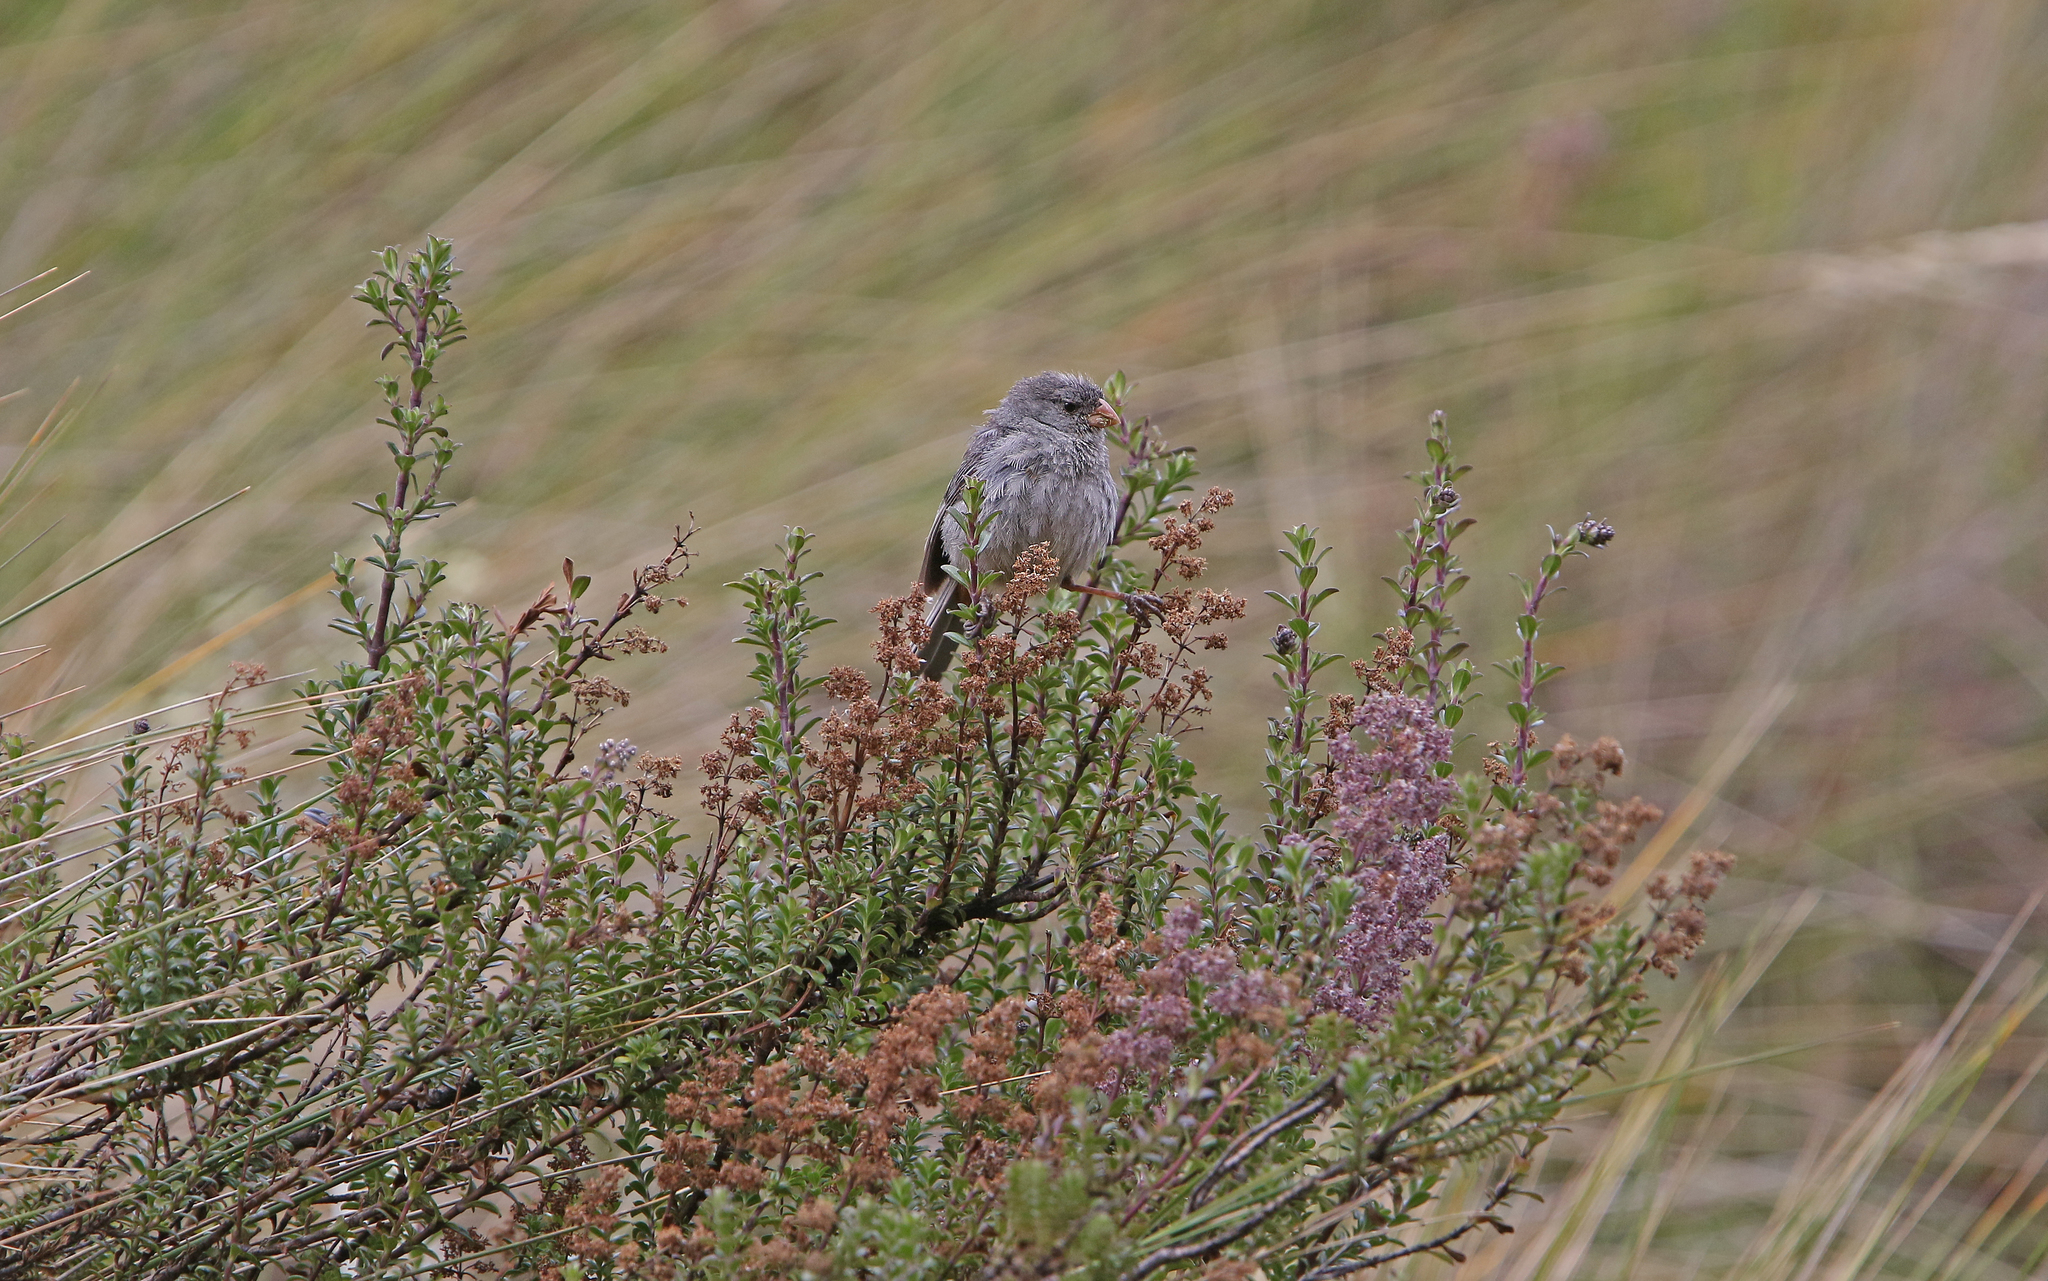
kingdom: Animalia
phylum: Chordata
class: Aves
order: Passeriformes
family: Thraupidae
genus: Catamenia
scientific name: Catamenia inornata
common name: Plain-colored seedeater
